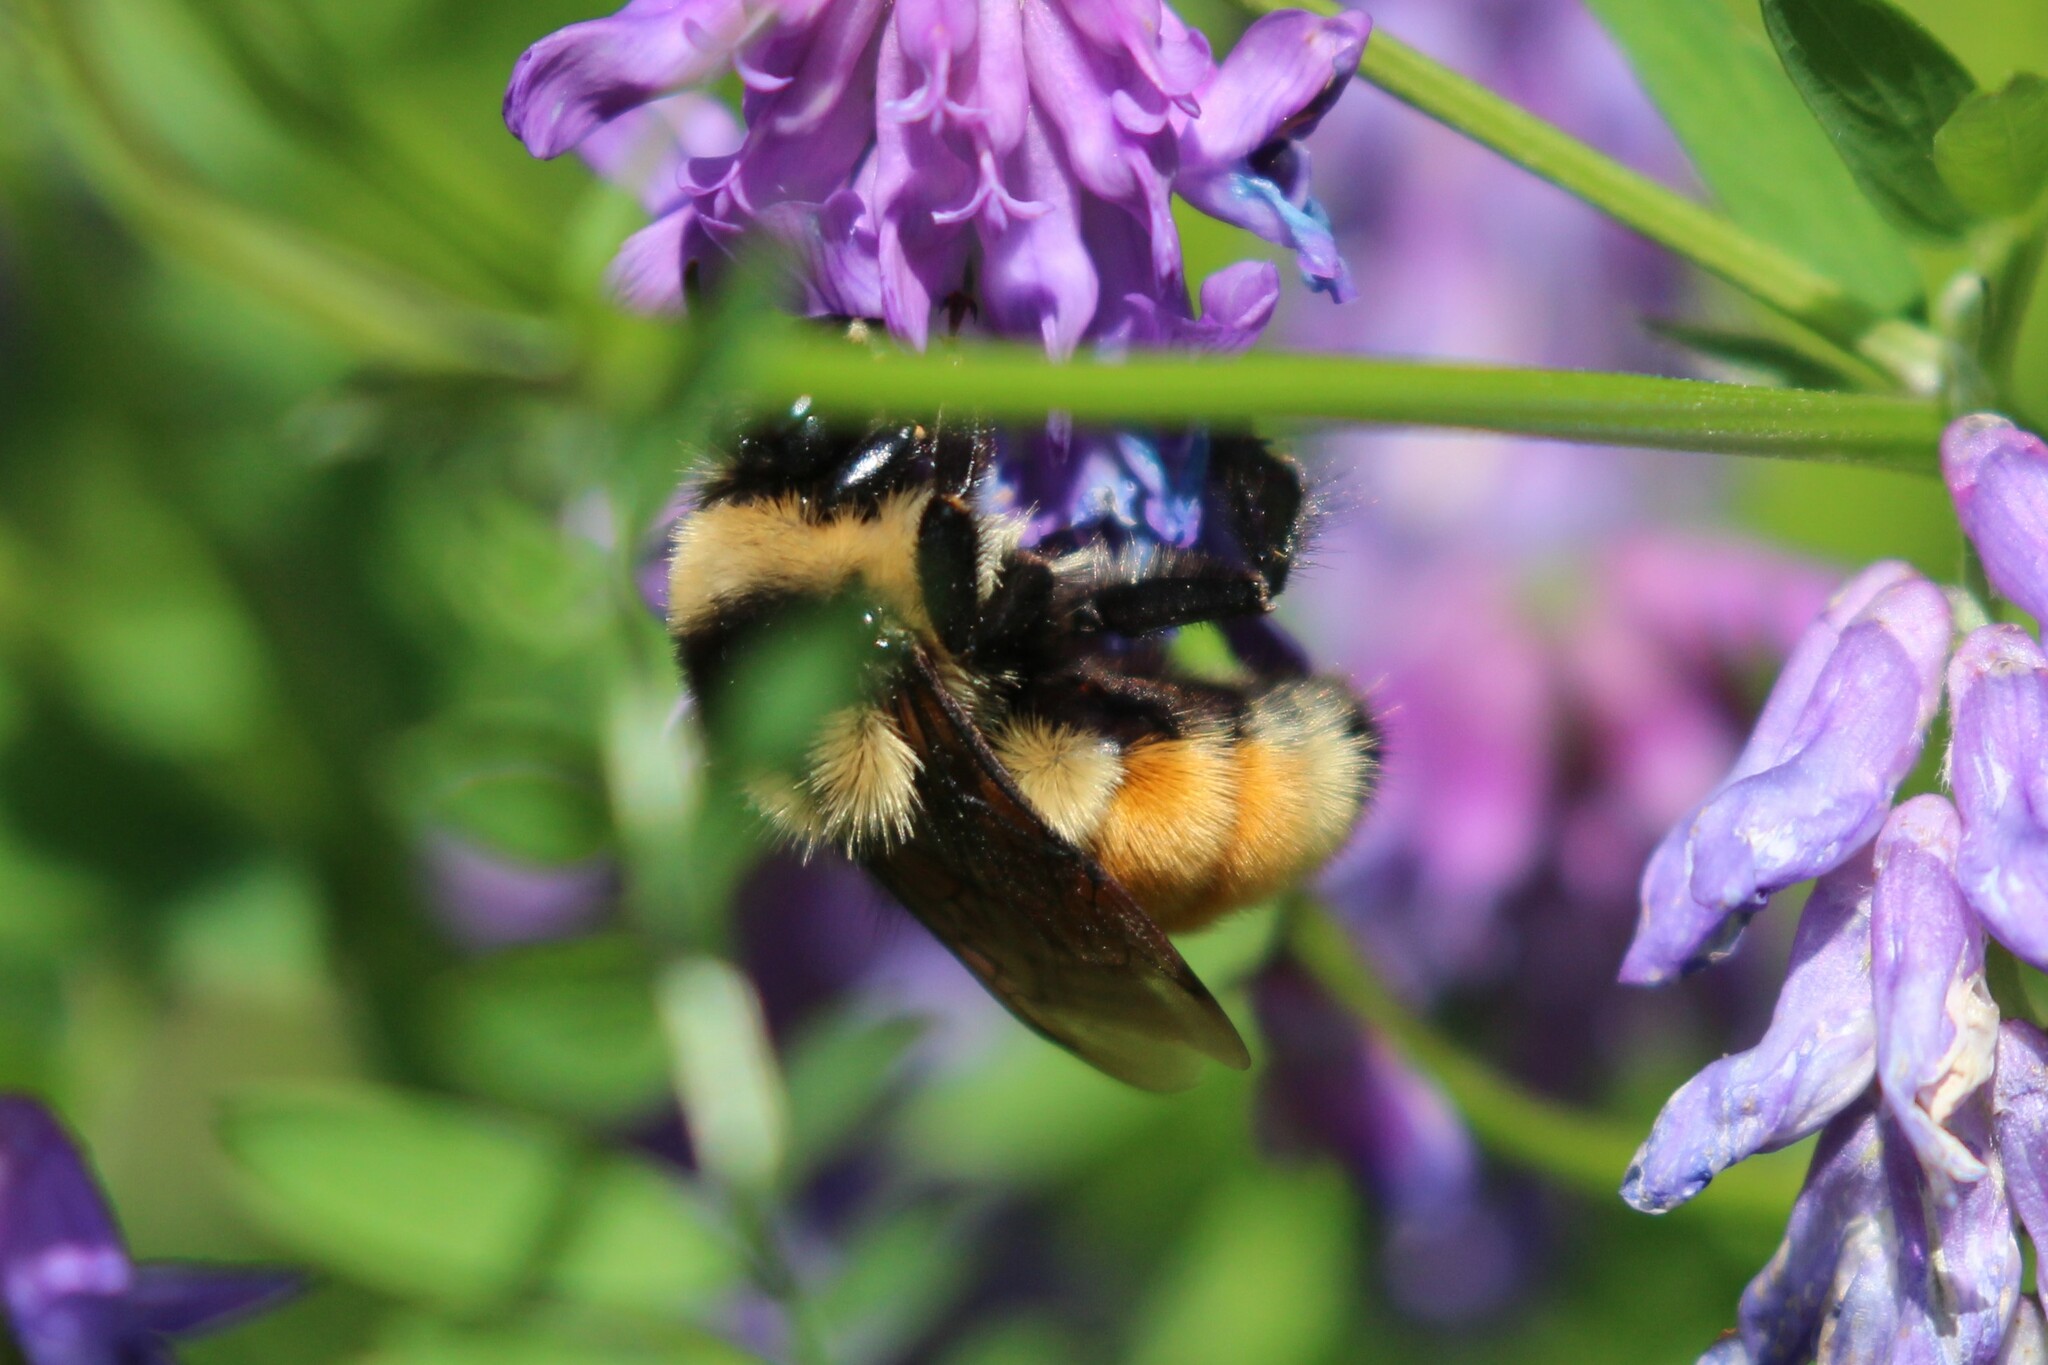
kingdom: Animalia
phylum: Arthropoda
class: Insecta
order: Hymenoptera
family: Apidae
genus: Bombus
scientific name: Bombus ternarius
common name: Tri-colored bumble bee
